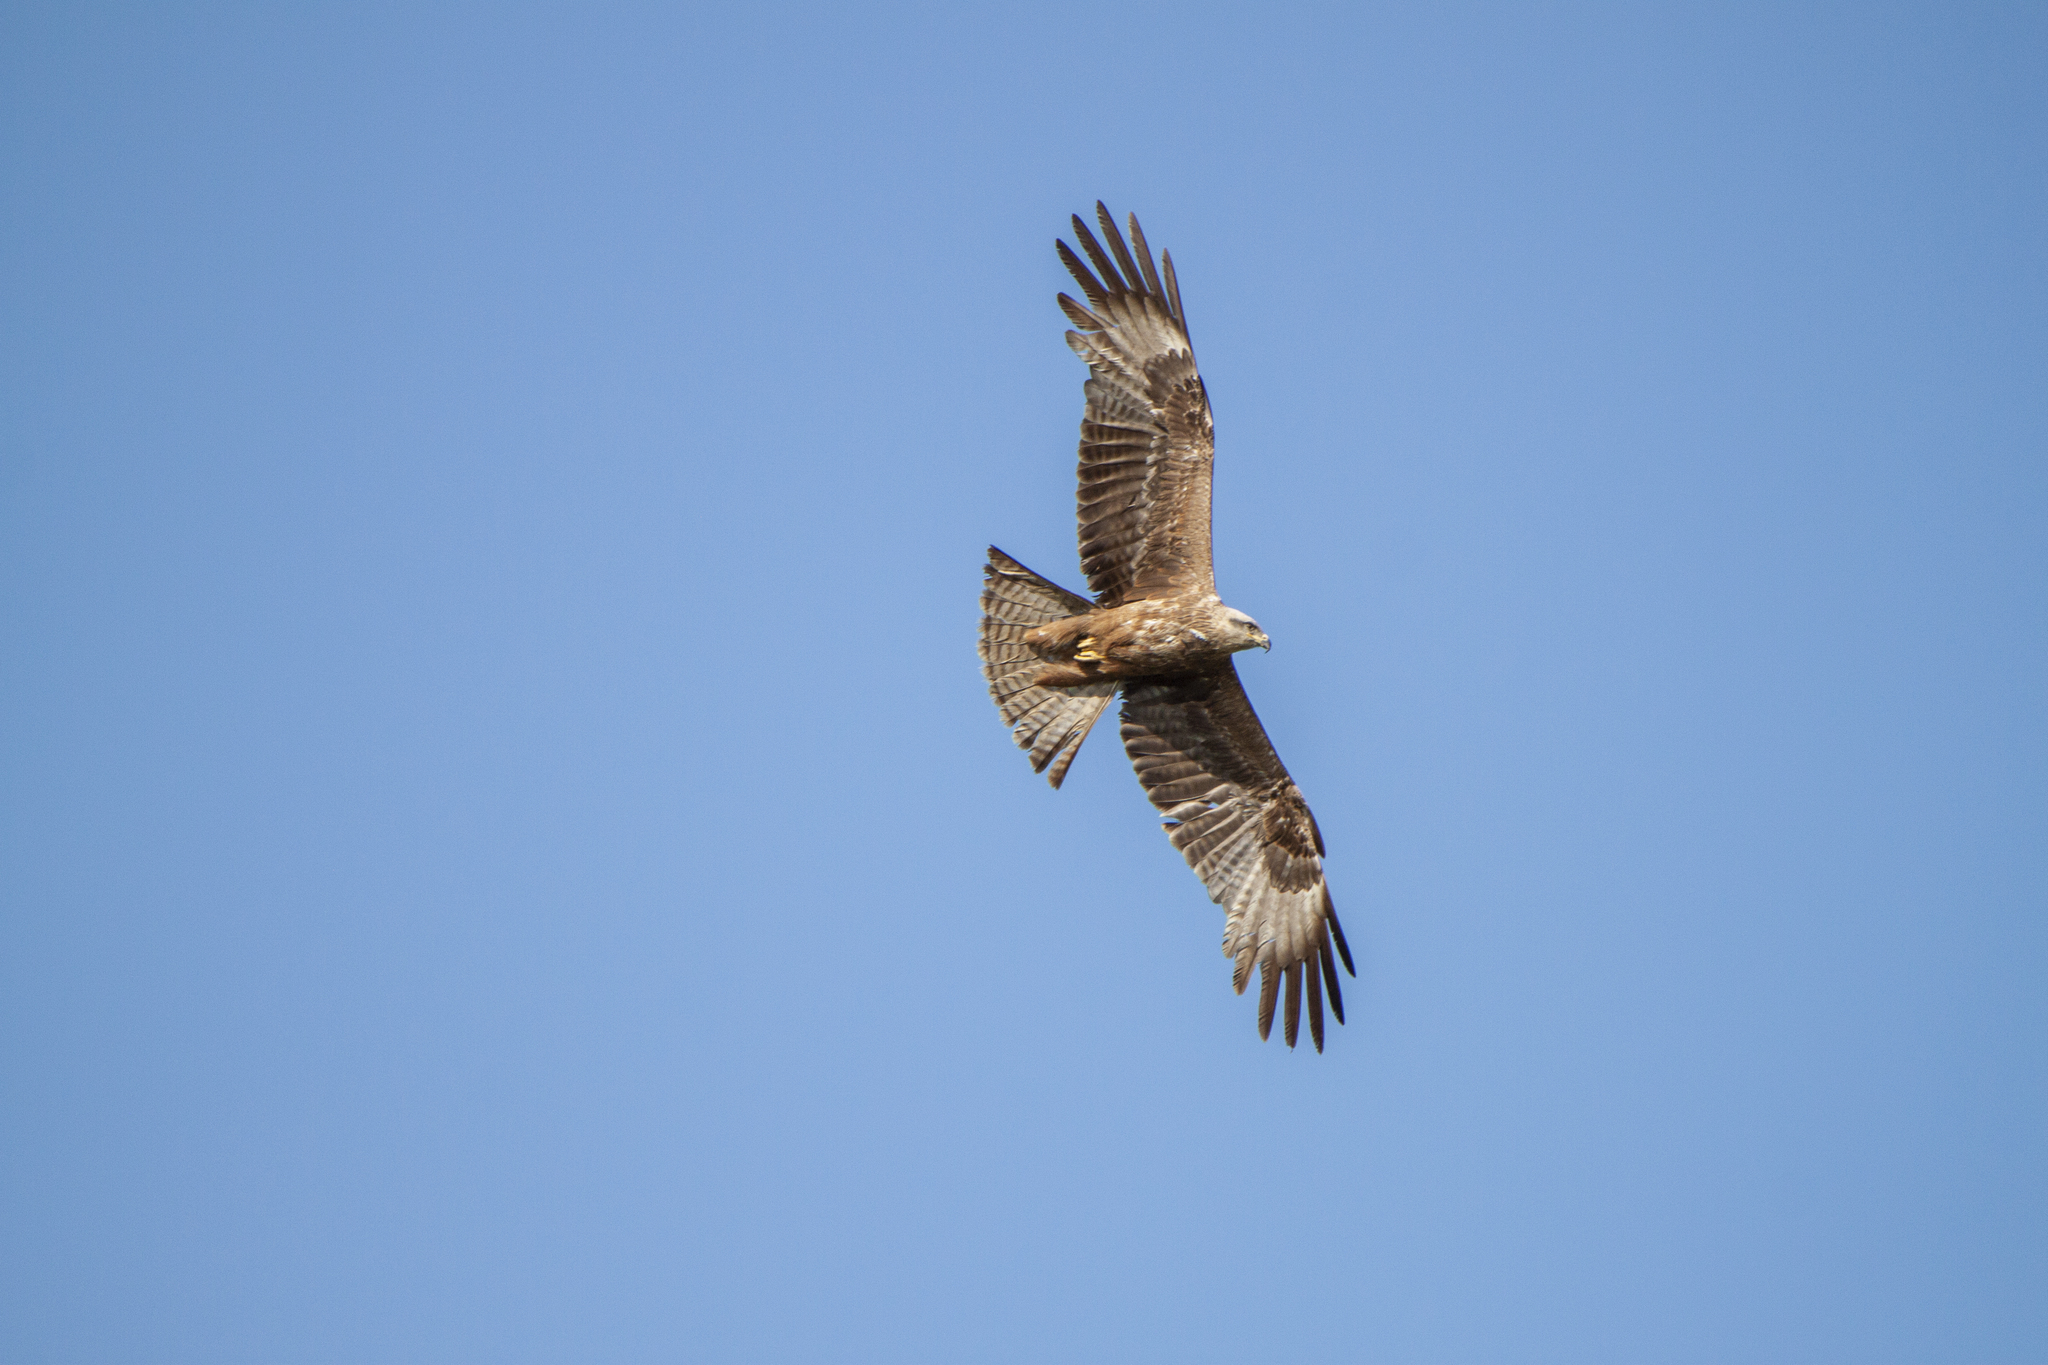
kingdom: Animalia
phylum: Chordata
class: Aves
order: Accipitriformes
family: Accipitridae
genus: Milvus
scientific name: Milvus migrans
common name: Black kite
